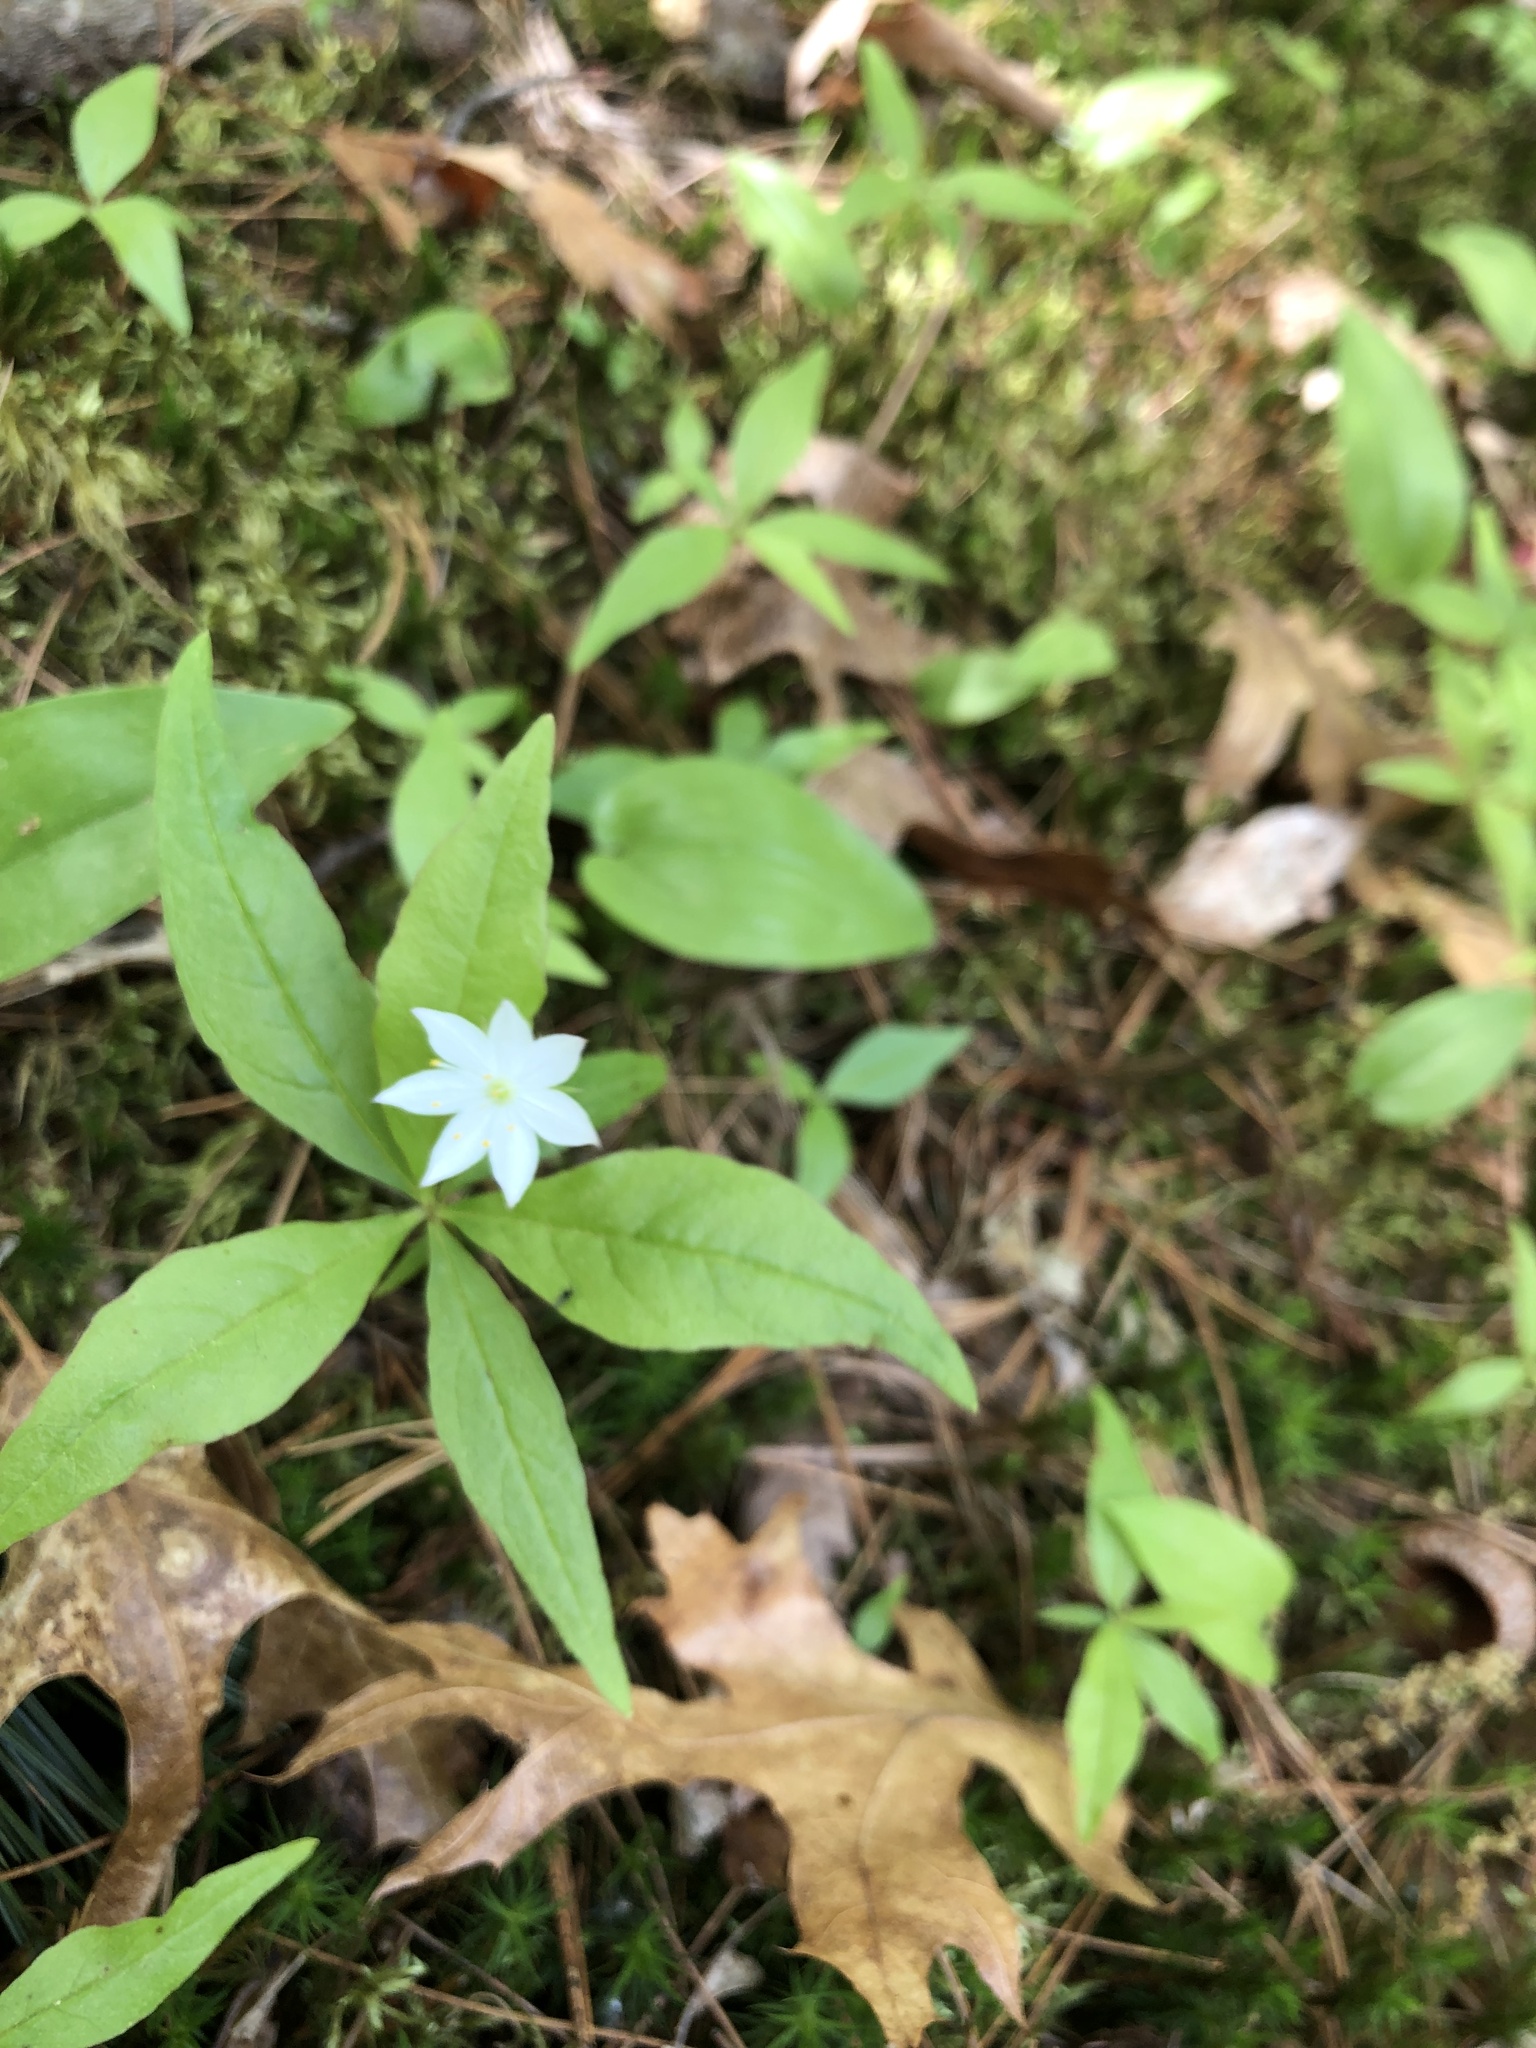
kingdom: Plantae
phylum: Tracheophyta
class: Magnoliopsida
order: Ericales
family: Primulaceae
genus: Lysimachia
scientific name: Lysimachia borealis
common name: American starflower
